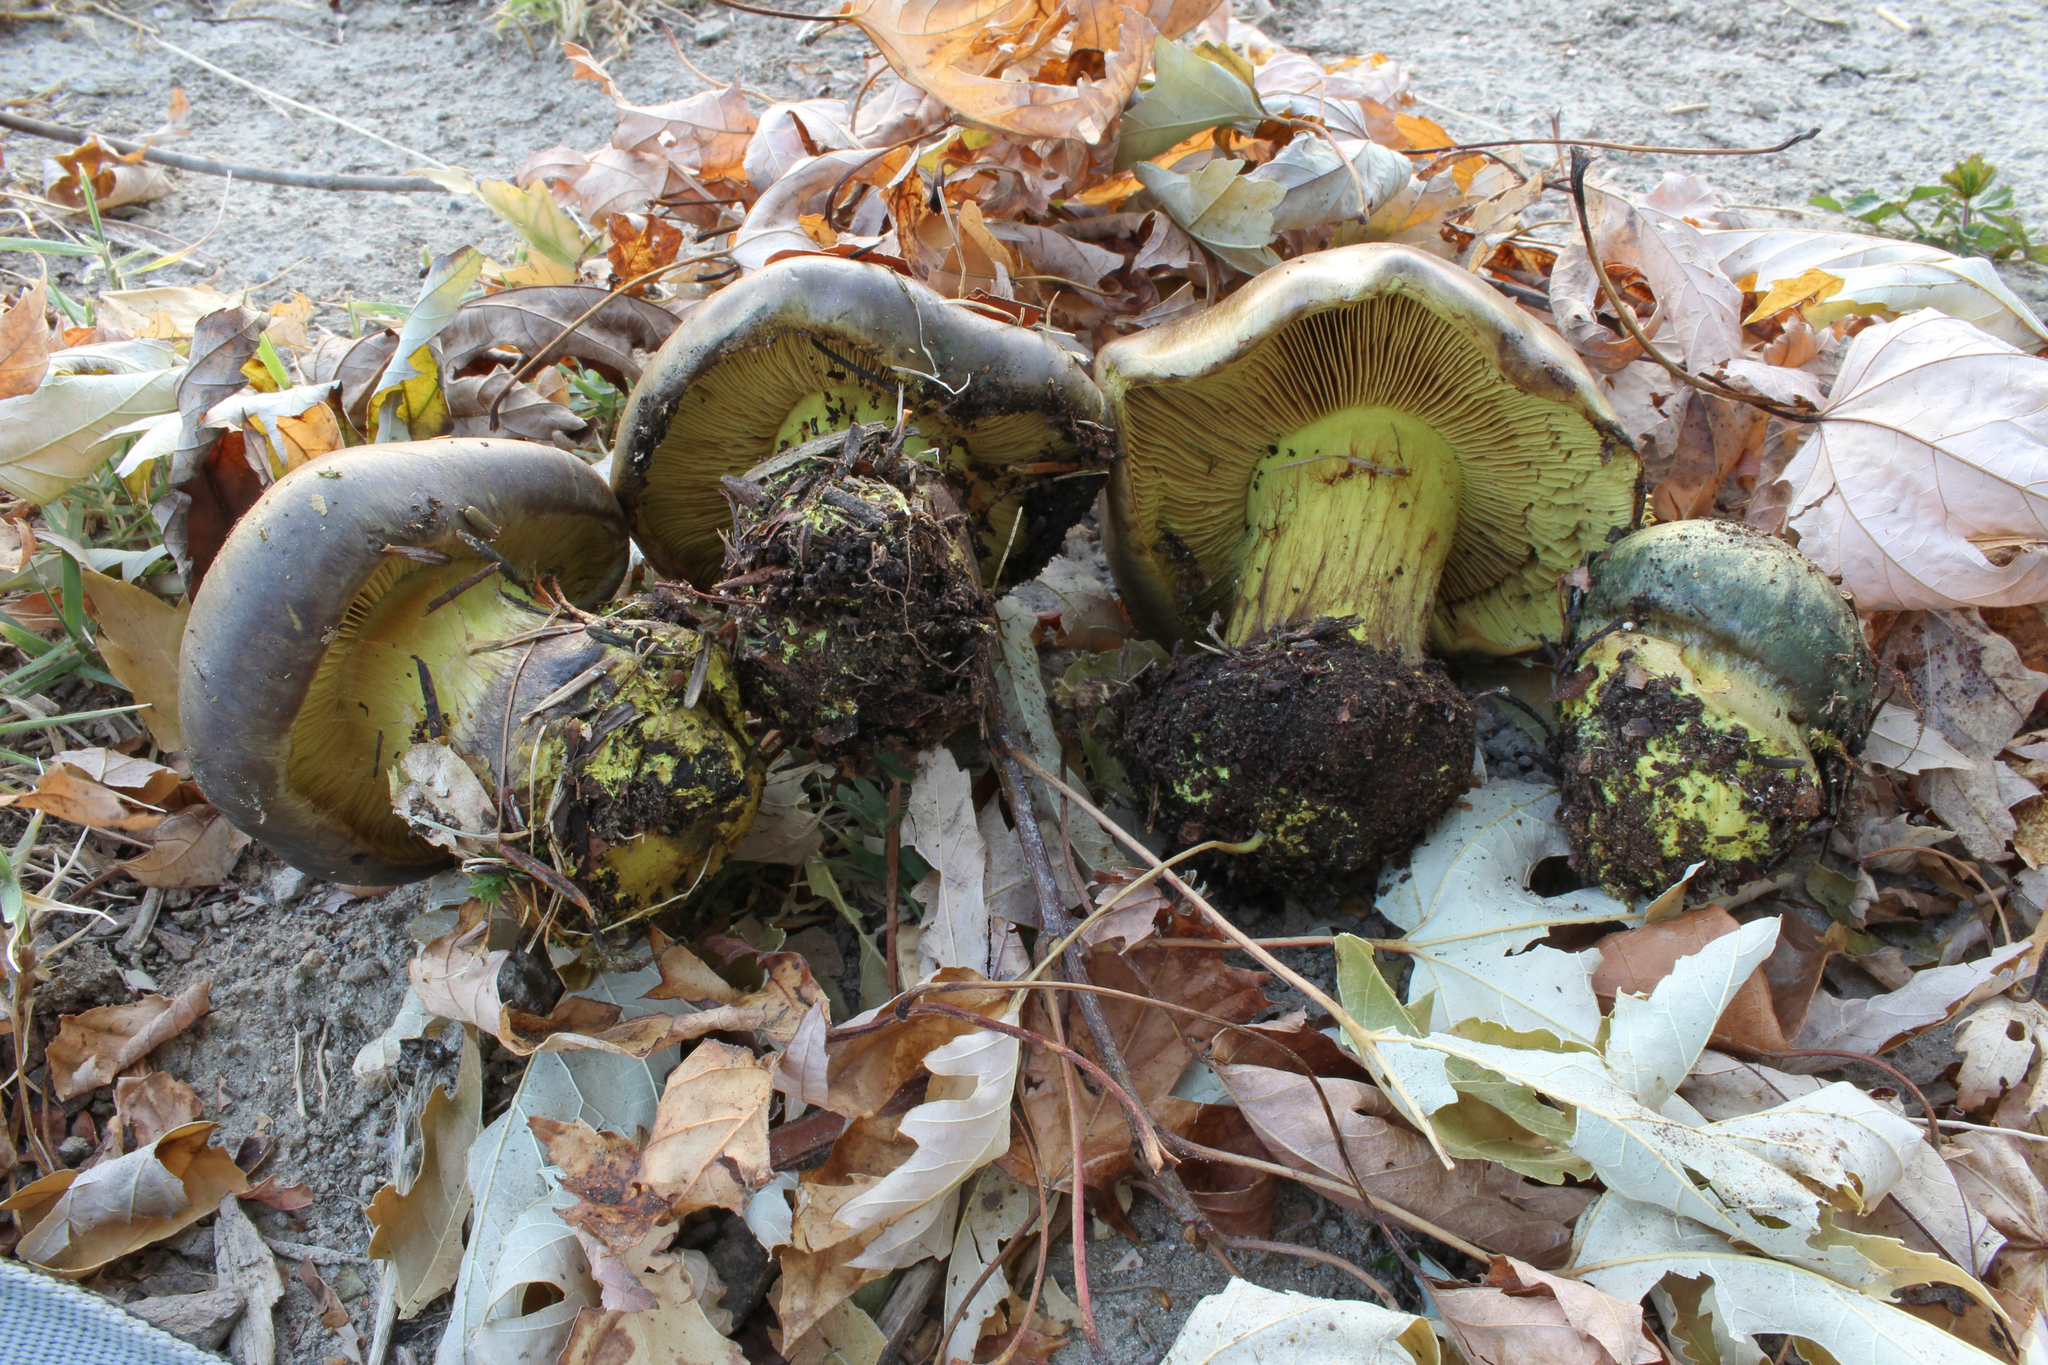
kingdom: Fungi
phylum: Basidiomycota
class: Agaricomycetes
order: Agaricales
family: Cortinariaceae
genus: Calonarius
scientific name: Calonarius atrovirens
